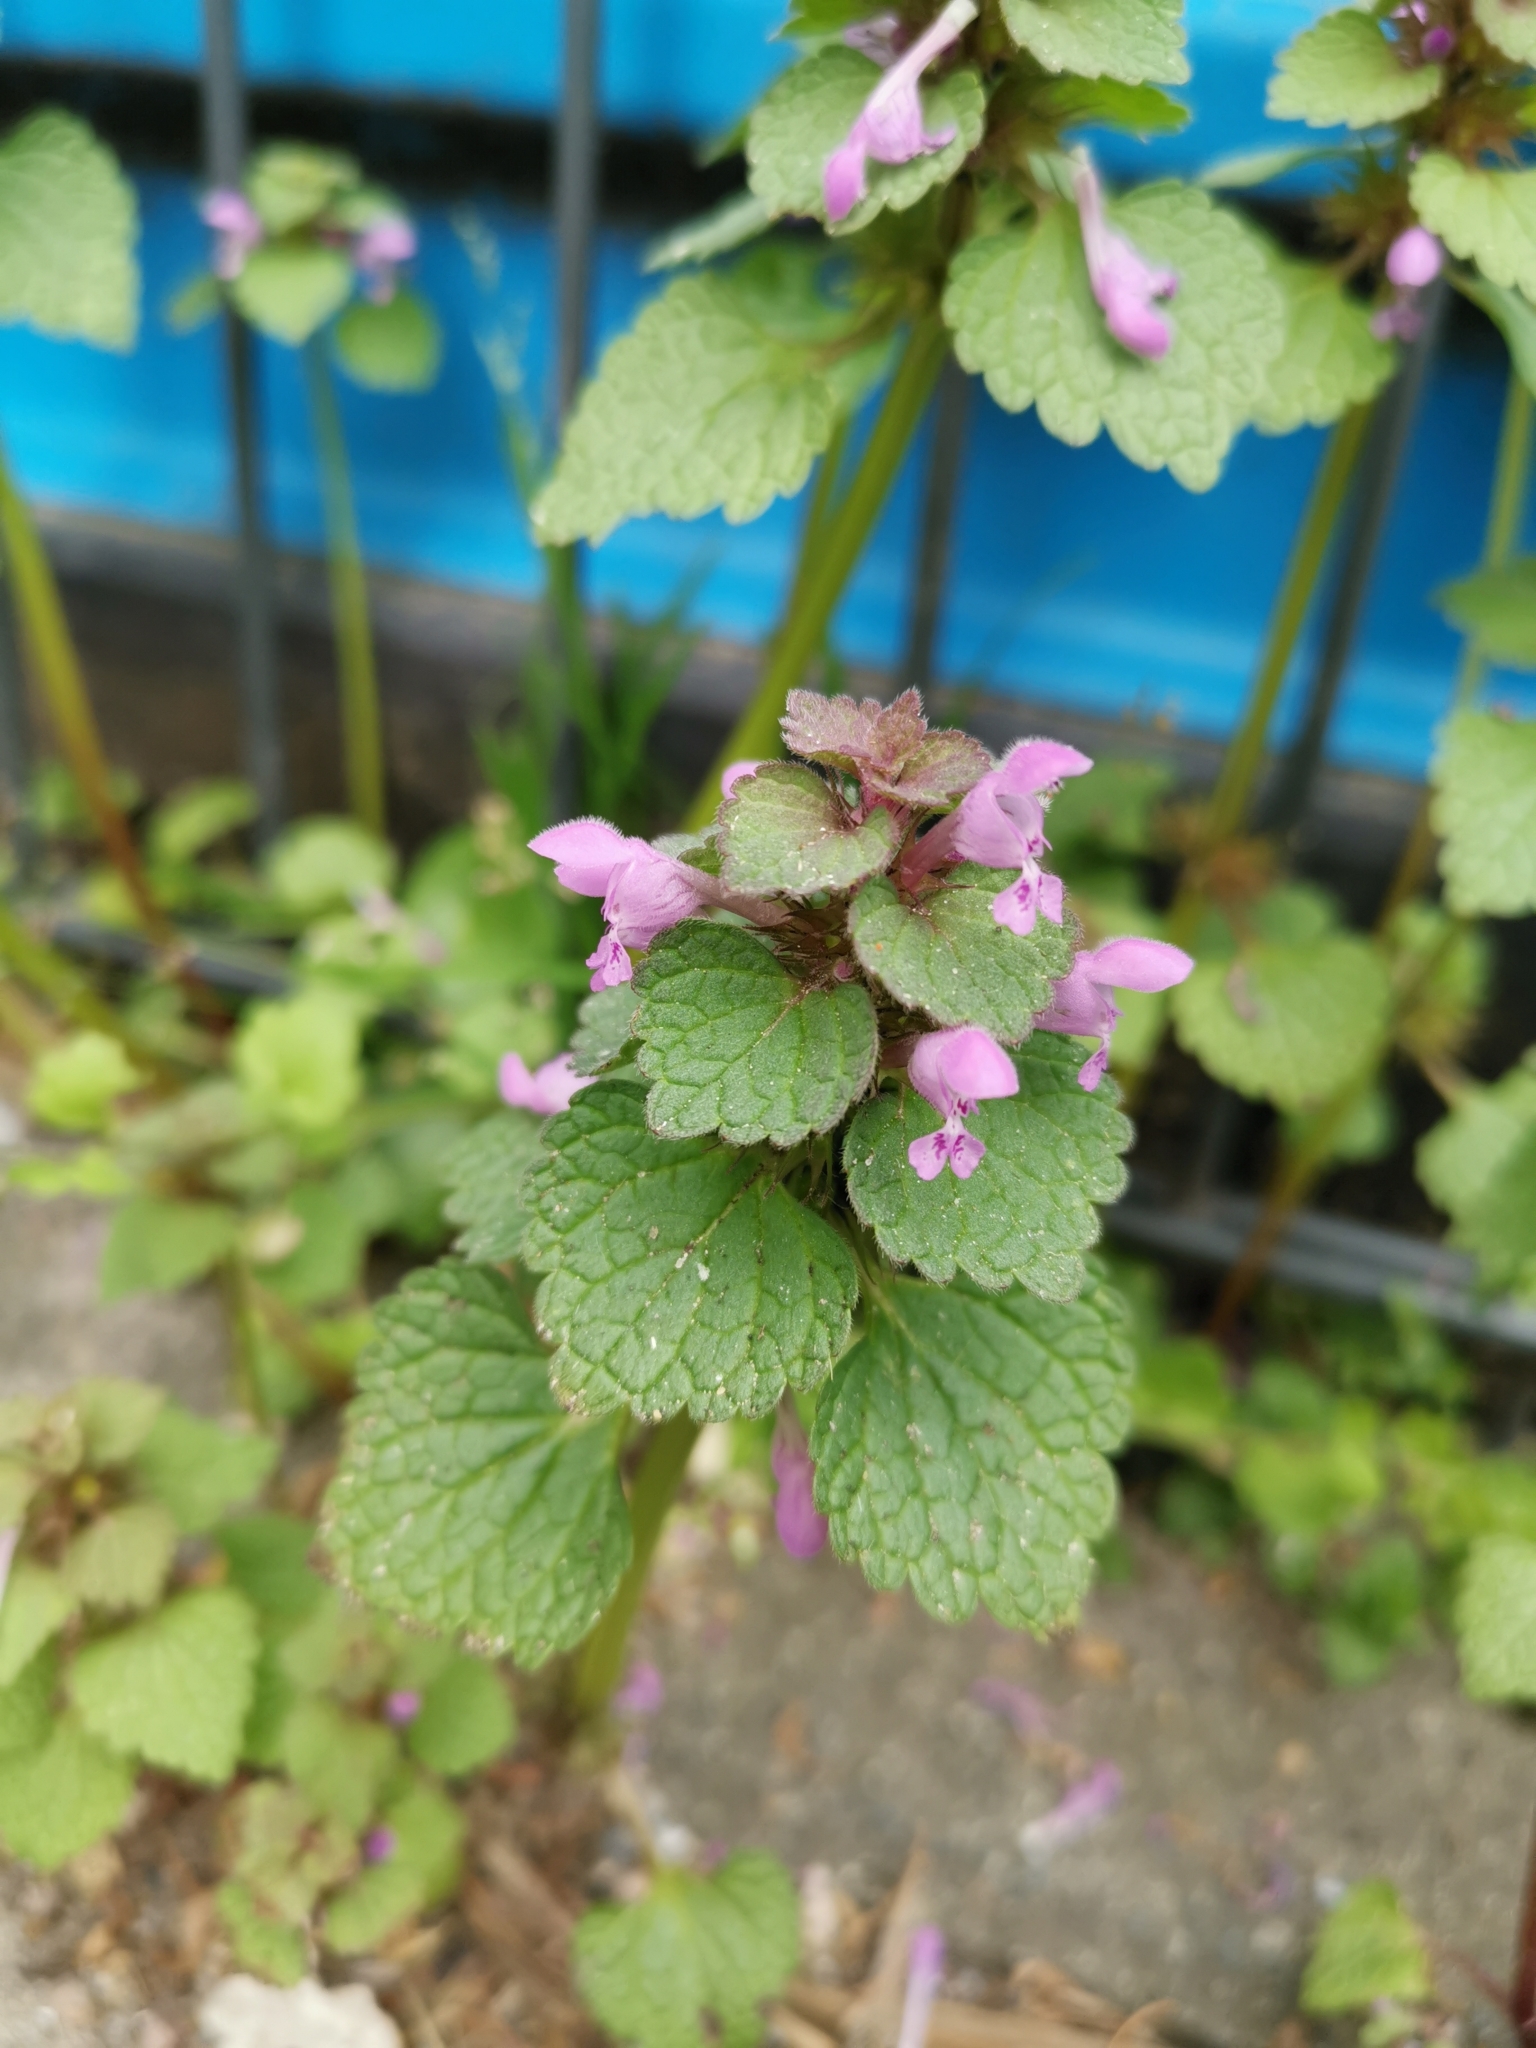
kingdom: Plantae
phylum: Tracheophyta
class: Magnoliopsida
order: Lamiales
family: Lamiaceae
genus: Lamium
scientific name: Lamium purpureum
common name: Red dead-nettle
